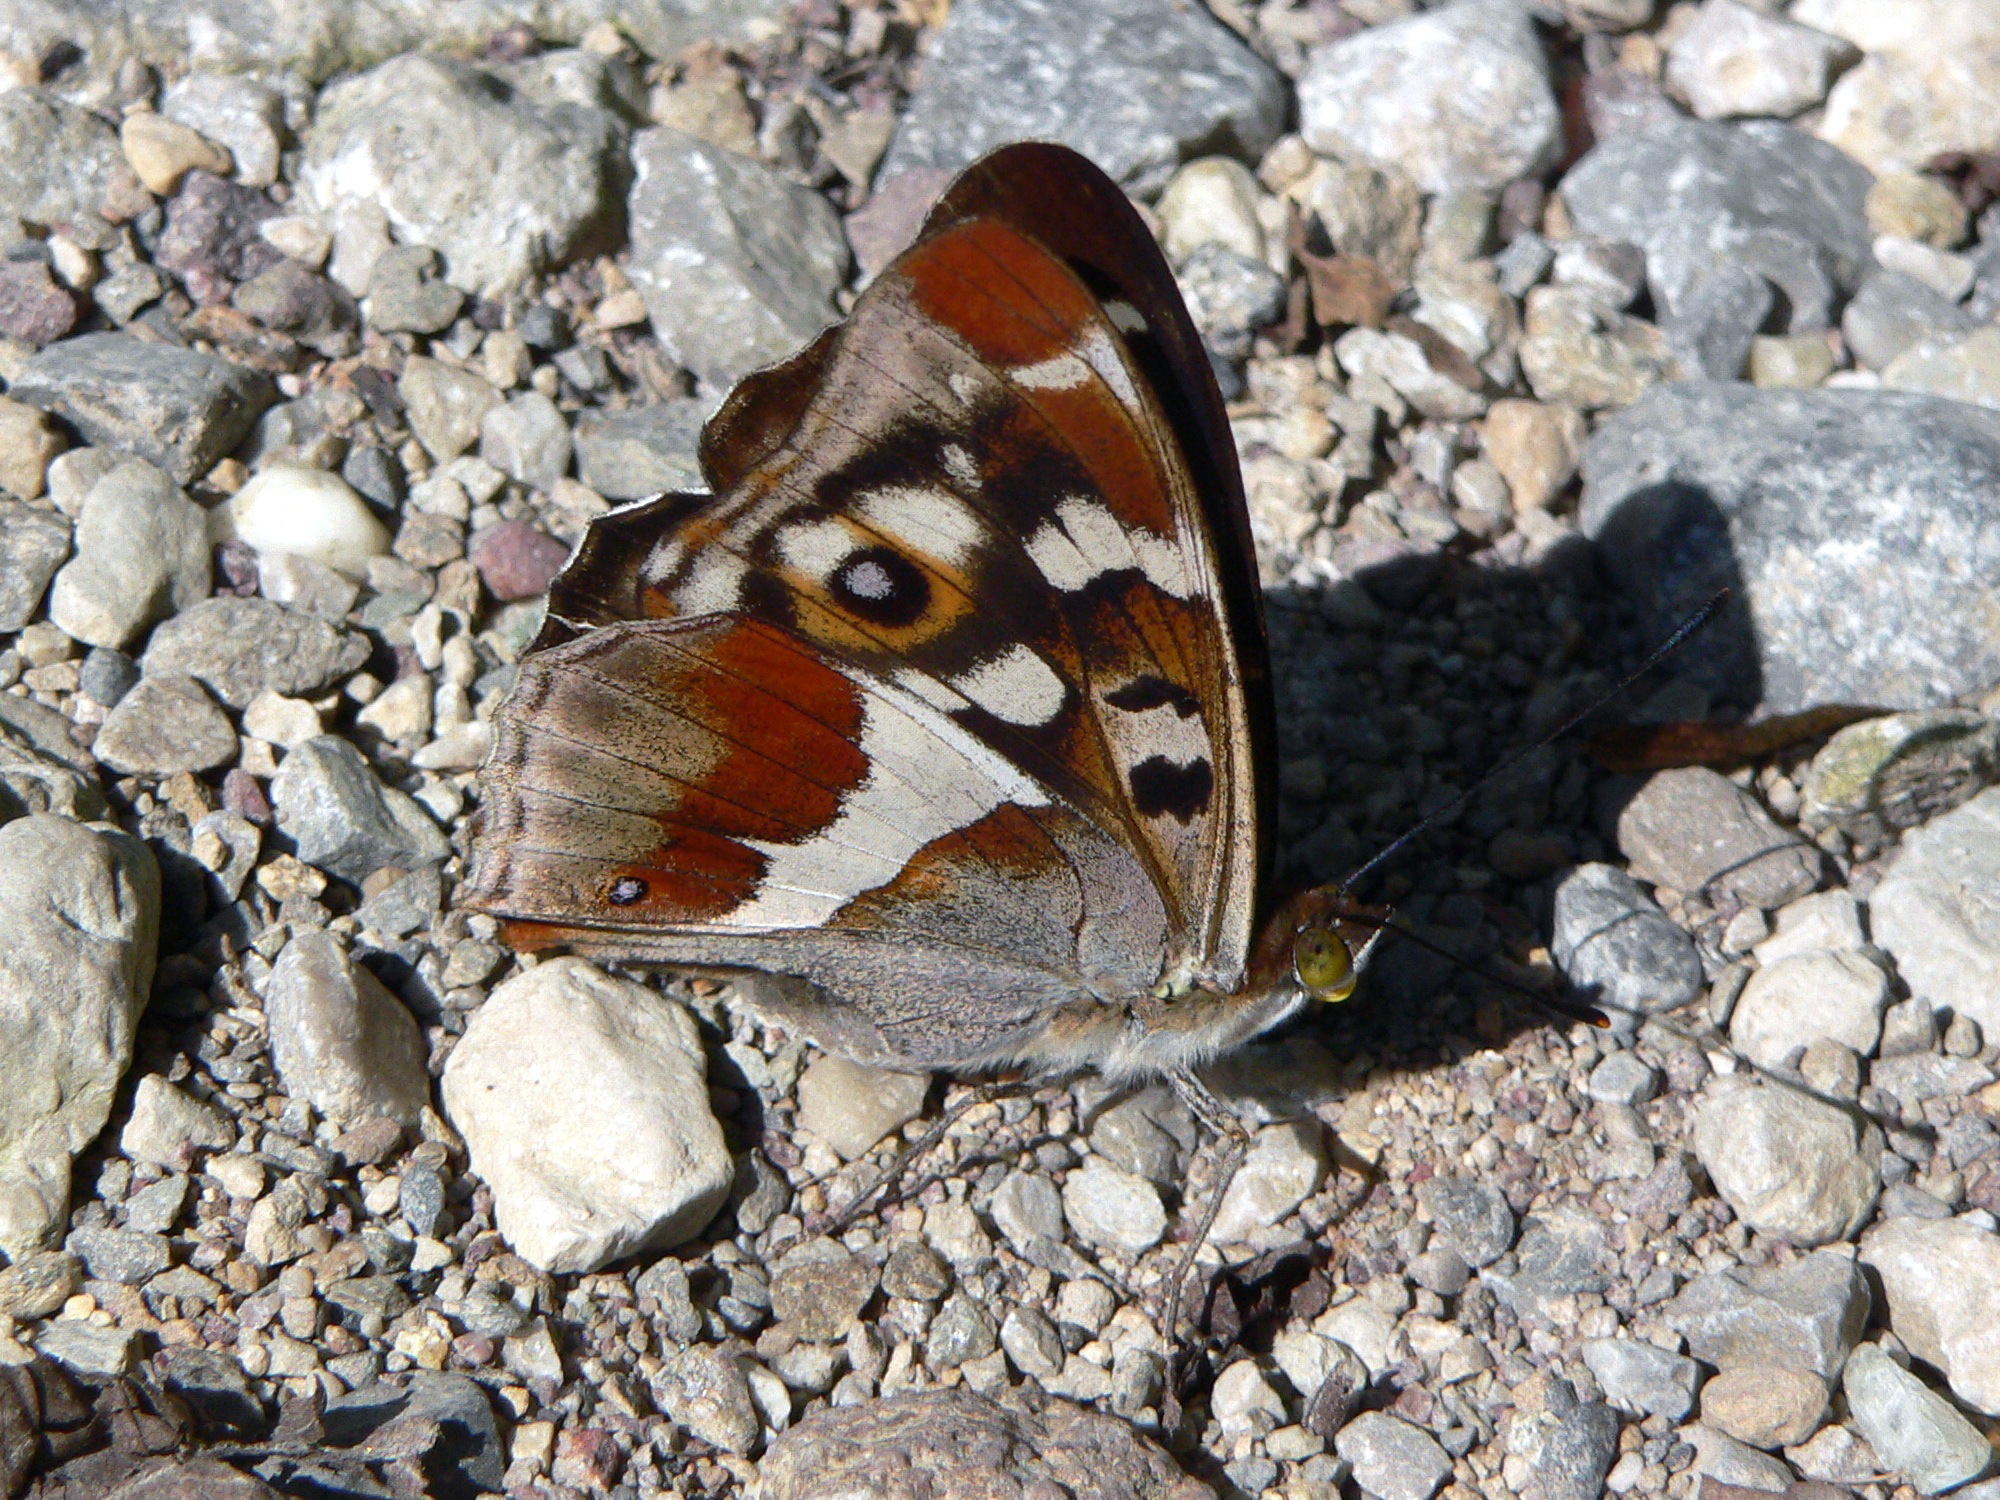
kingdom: Animalia
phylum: Arthropoda
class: Insecta
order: Lepidoptera
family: Nymphalidae
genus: Apatura
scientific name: Apatura iris
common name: Purple emperor
